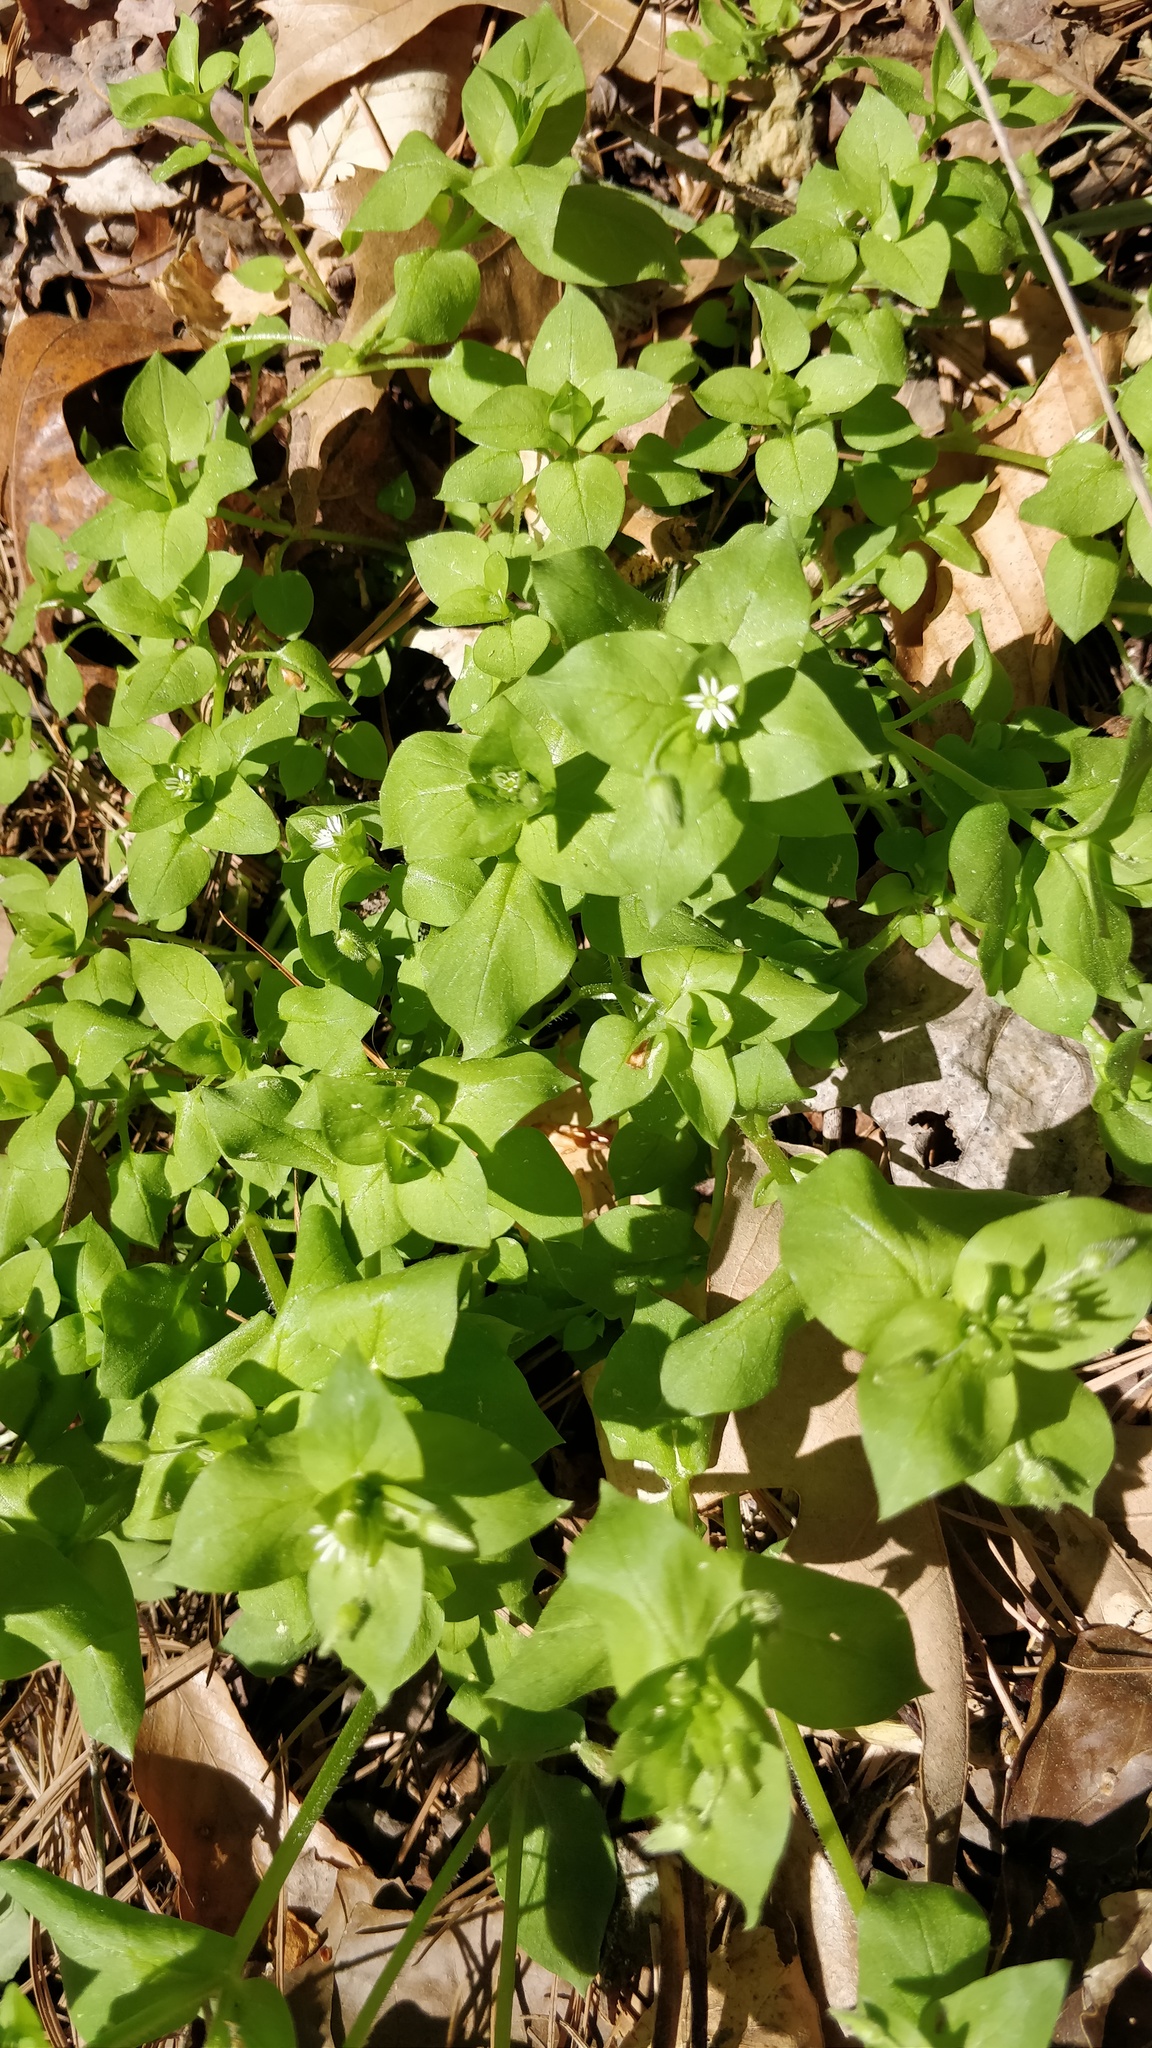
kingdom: Plantae
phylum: Tracheophyta
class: Magnoliopsida
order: Caryophyllales
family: Caryophyllaceae
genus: Stellaria
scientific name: Stellaria media
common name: Common chickweed
